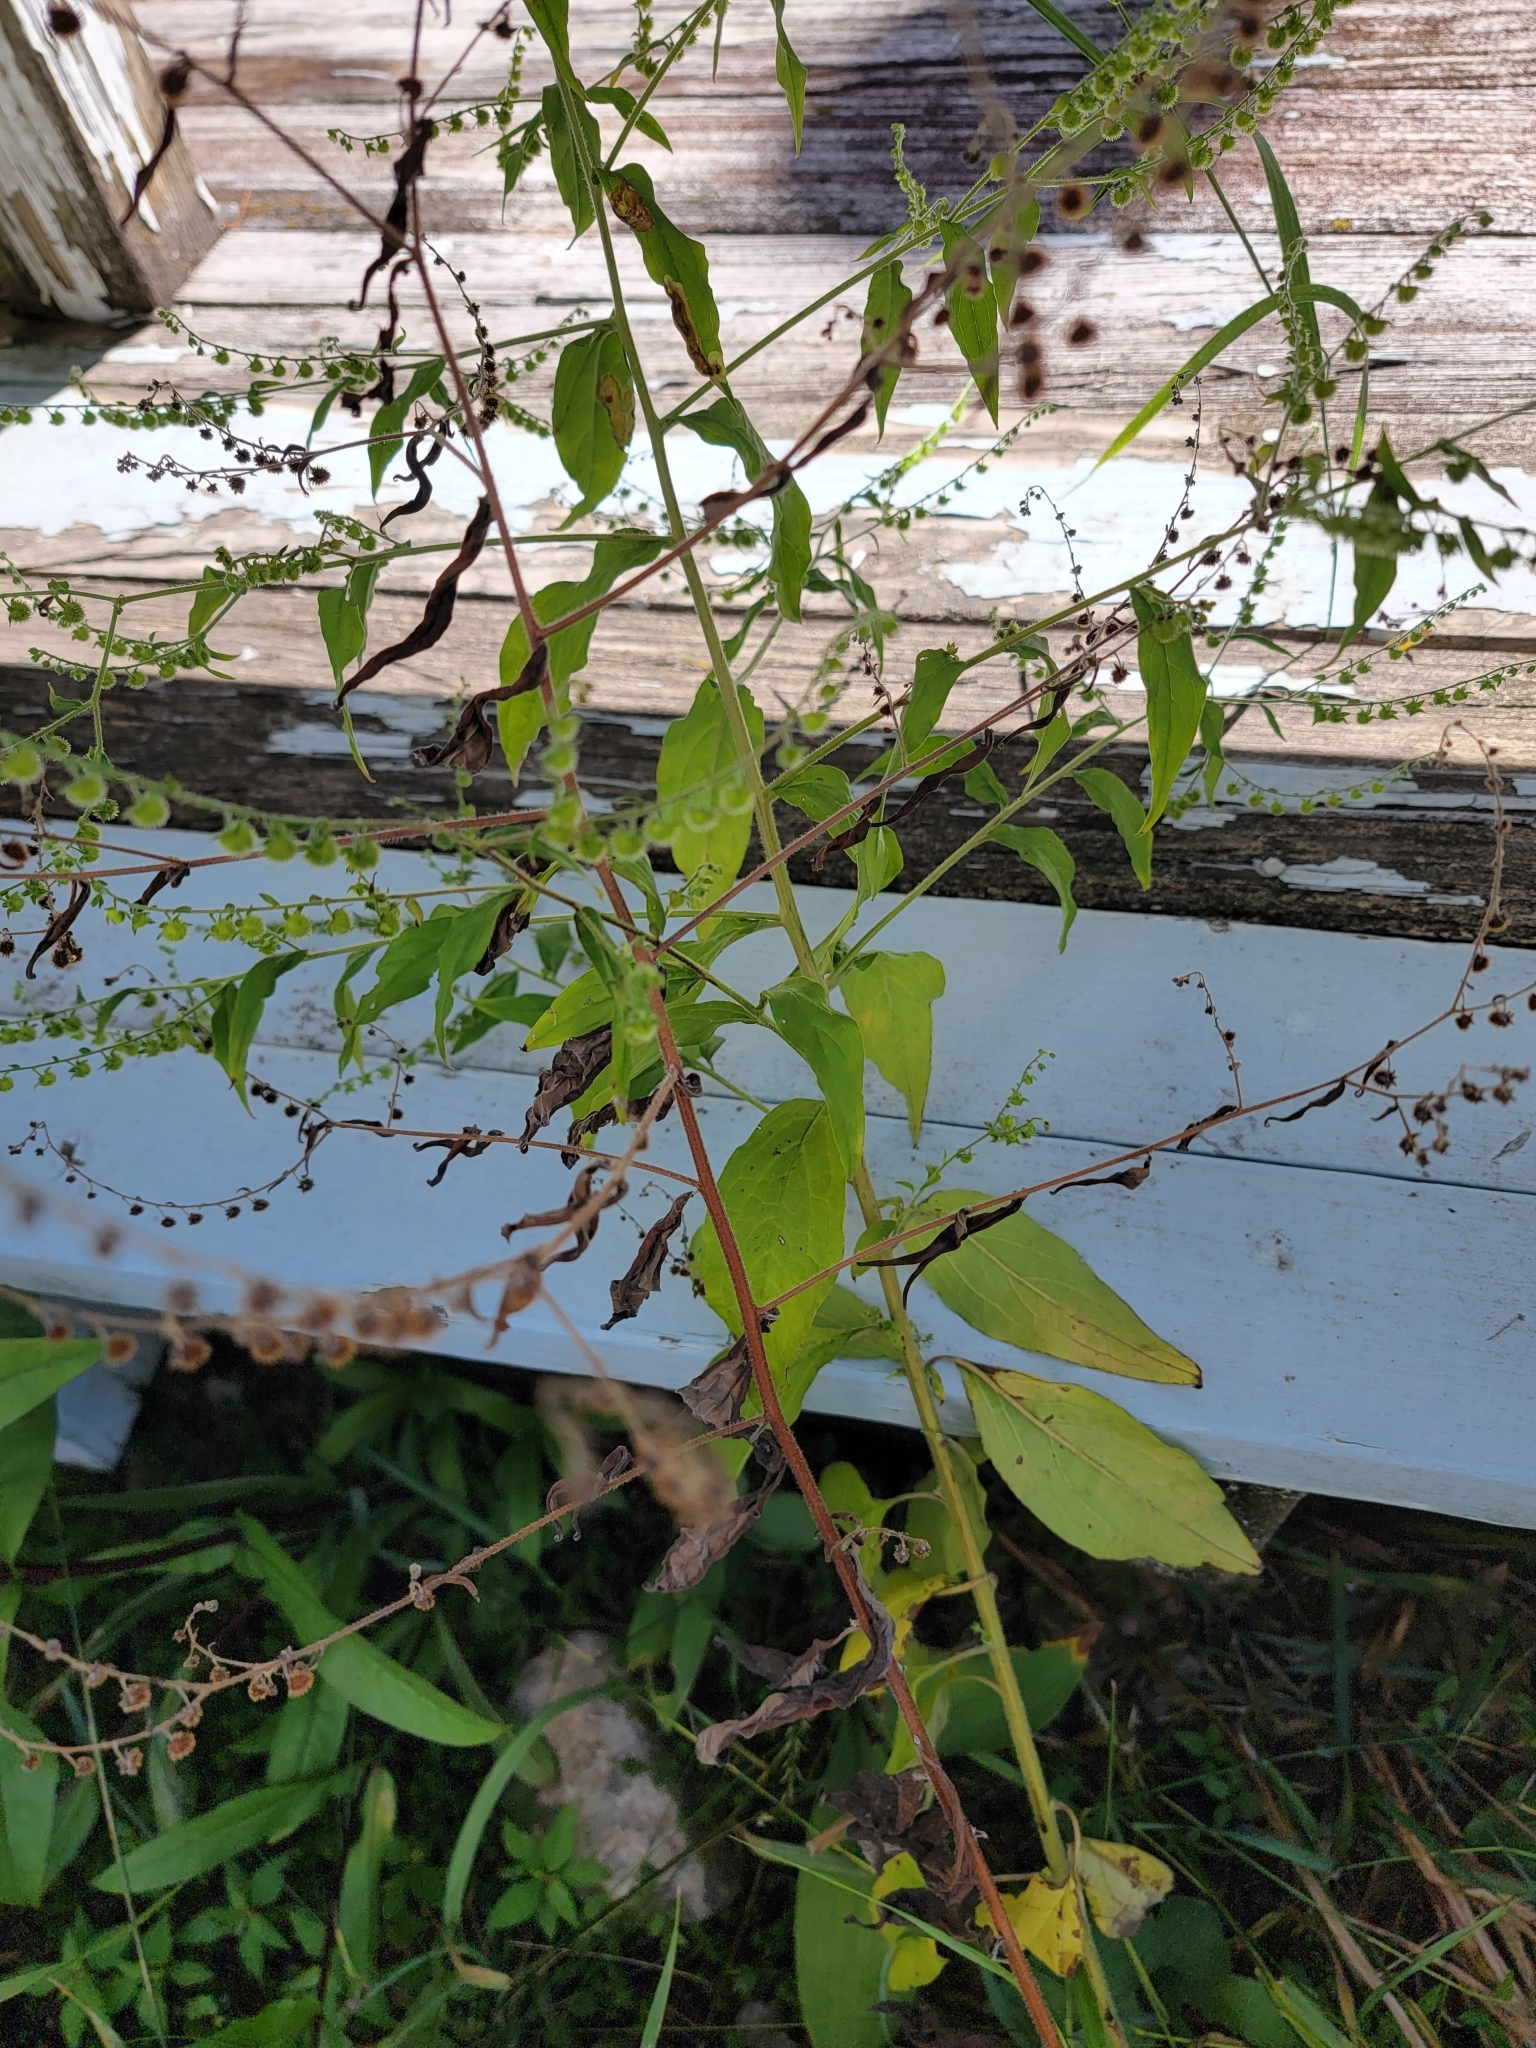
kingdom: Plantae
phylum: Tracheophyta
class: Magnoliopsida
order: Boraginales
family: Boraginaceae
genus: Hackelia
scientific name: Hackelia virginiana
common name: Beggar's-lice
